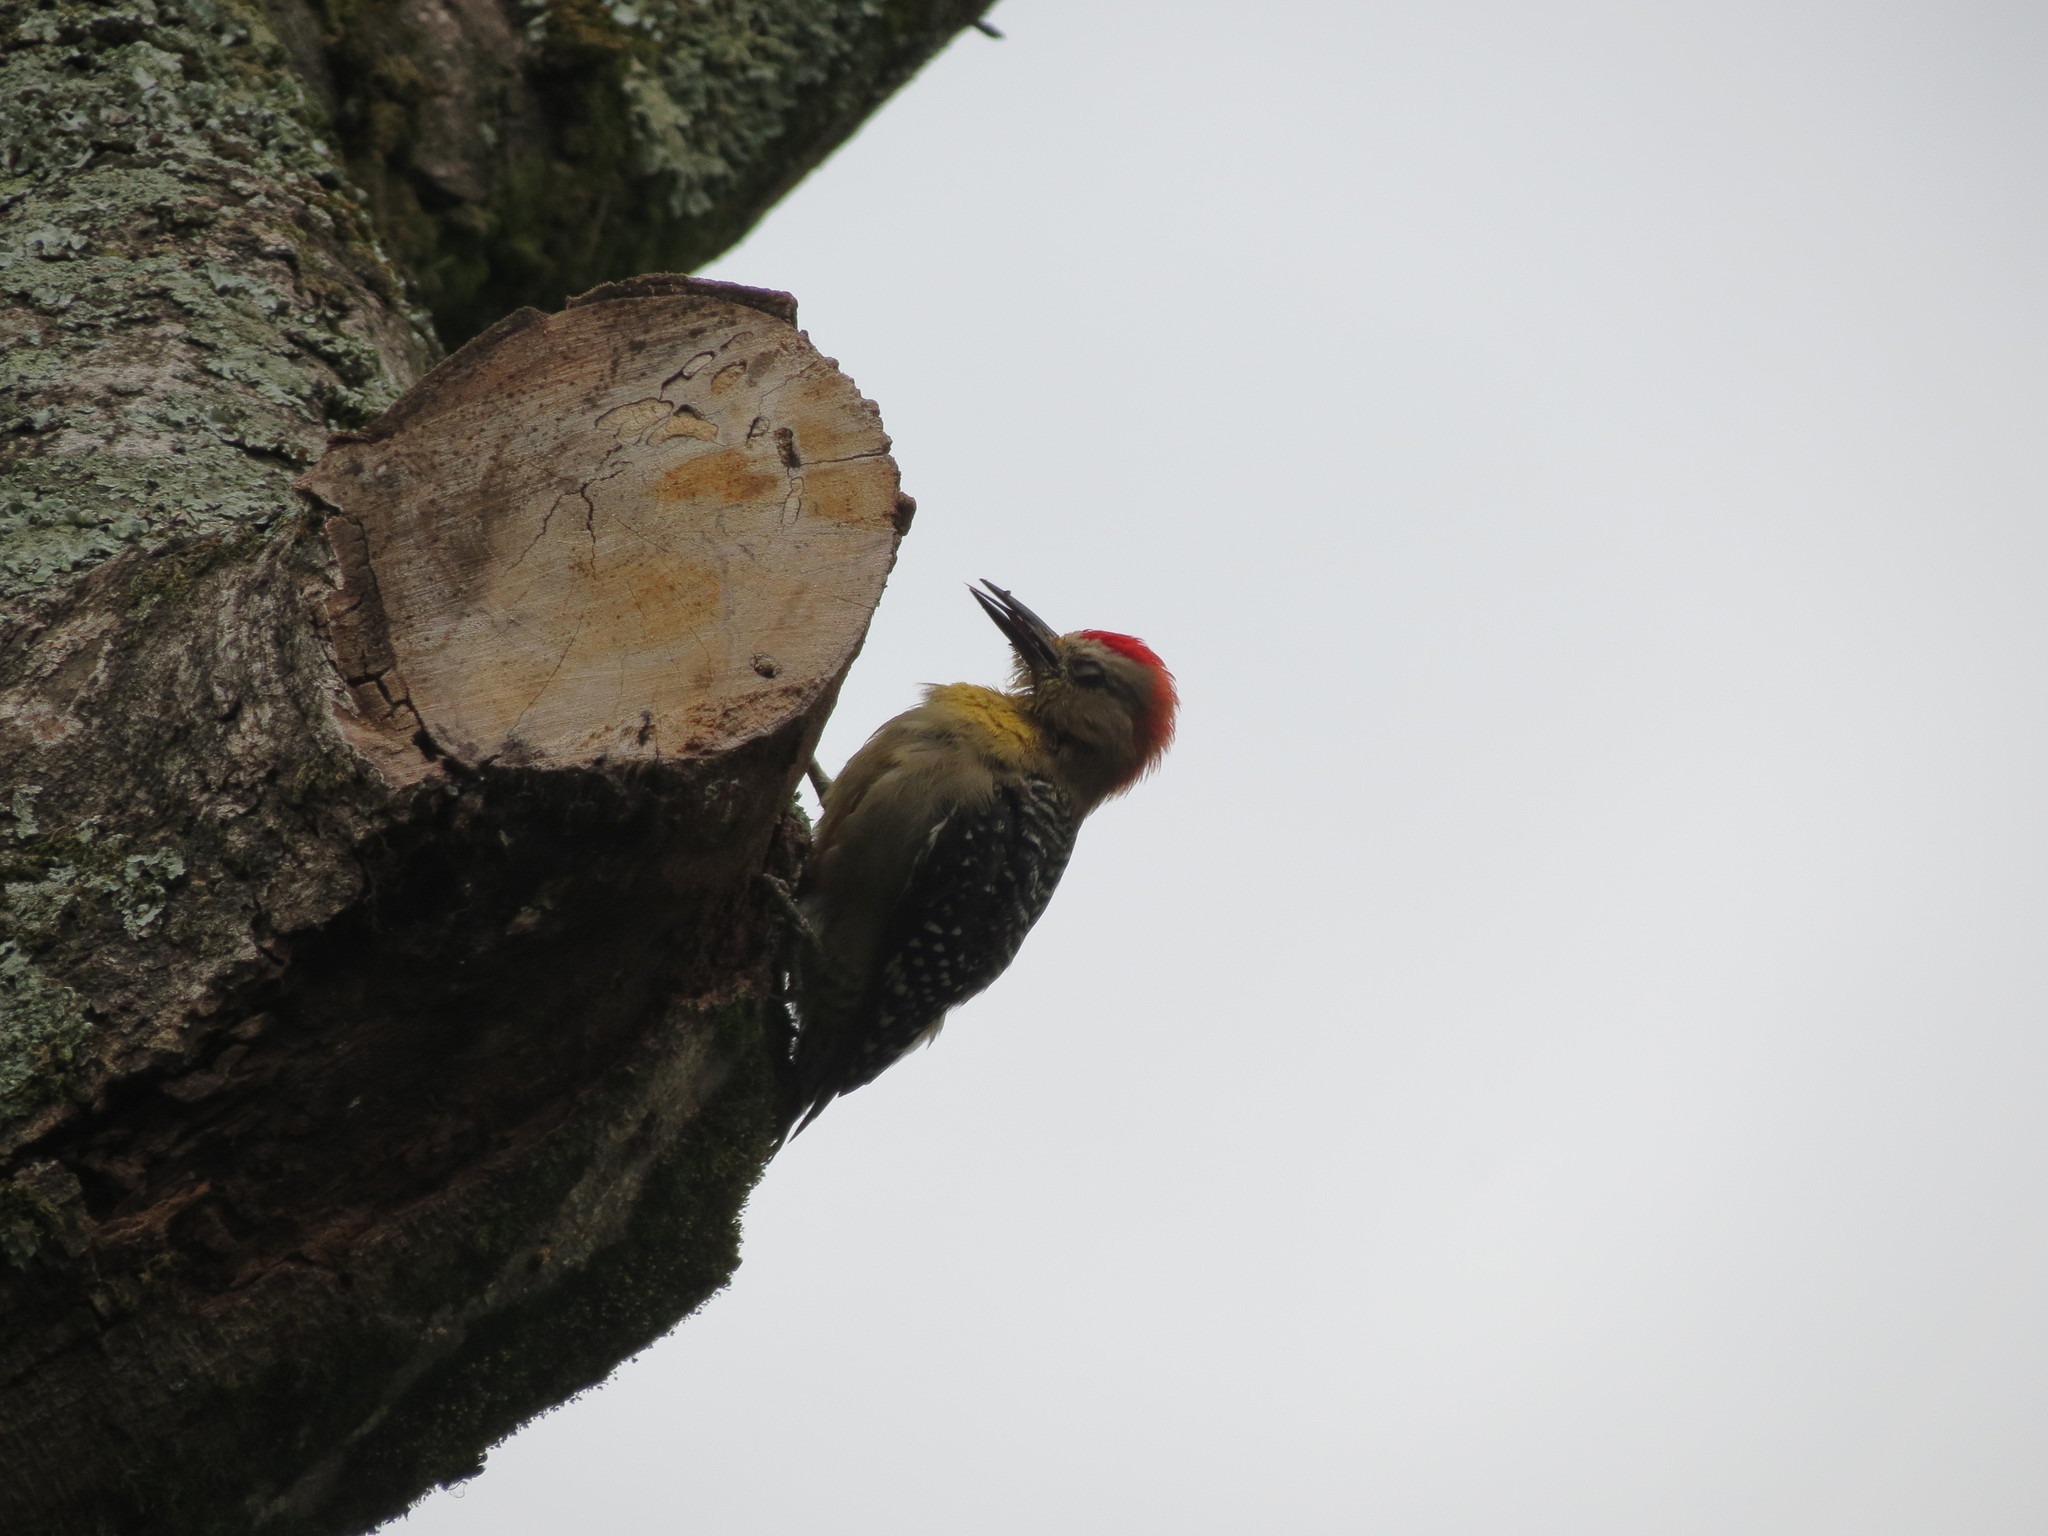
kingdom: Animalia
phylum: Chordata
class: Aves
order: Piciformes
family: Picidae
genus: Melanerpes
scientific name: Melanerpes rubricapillus
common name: Red-crowned woodpecker
